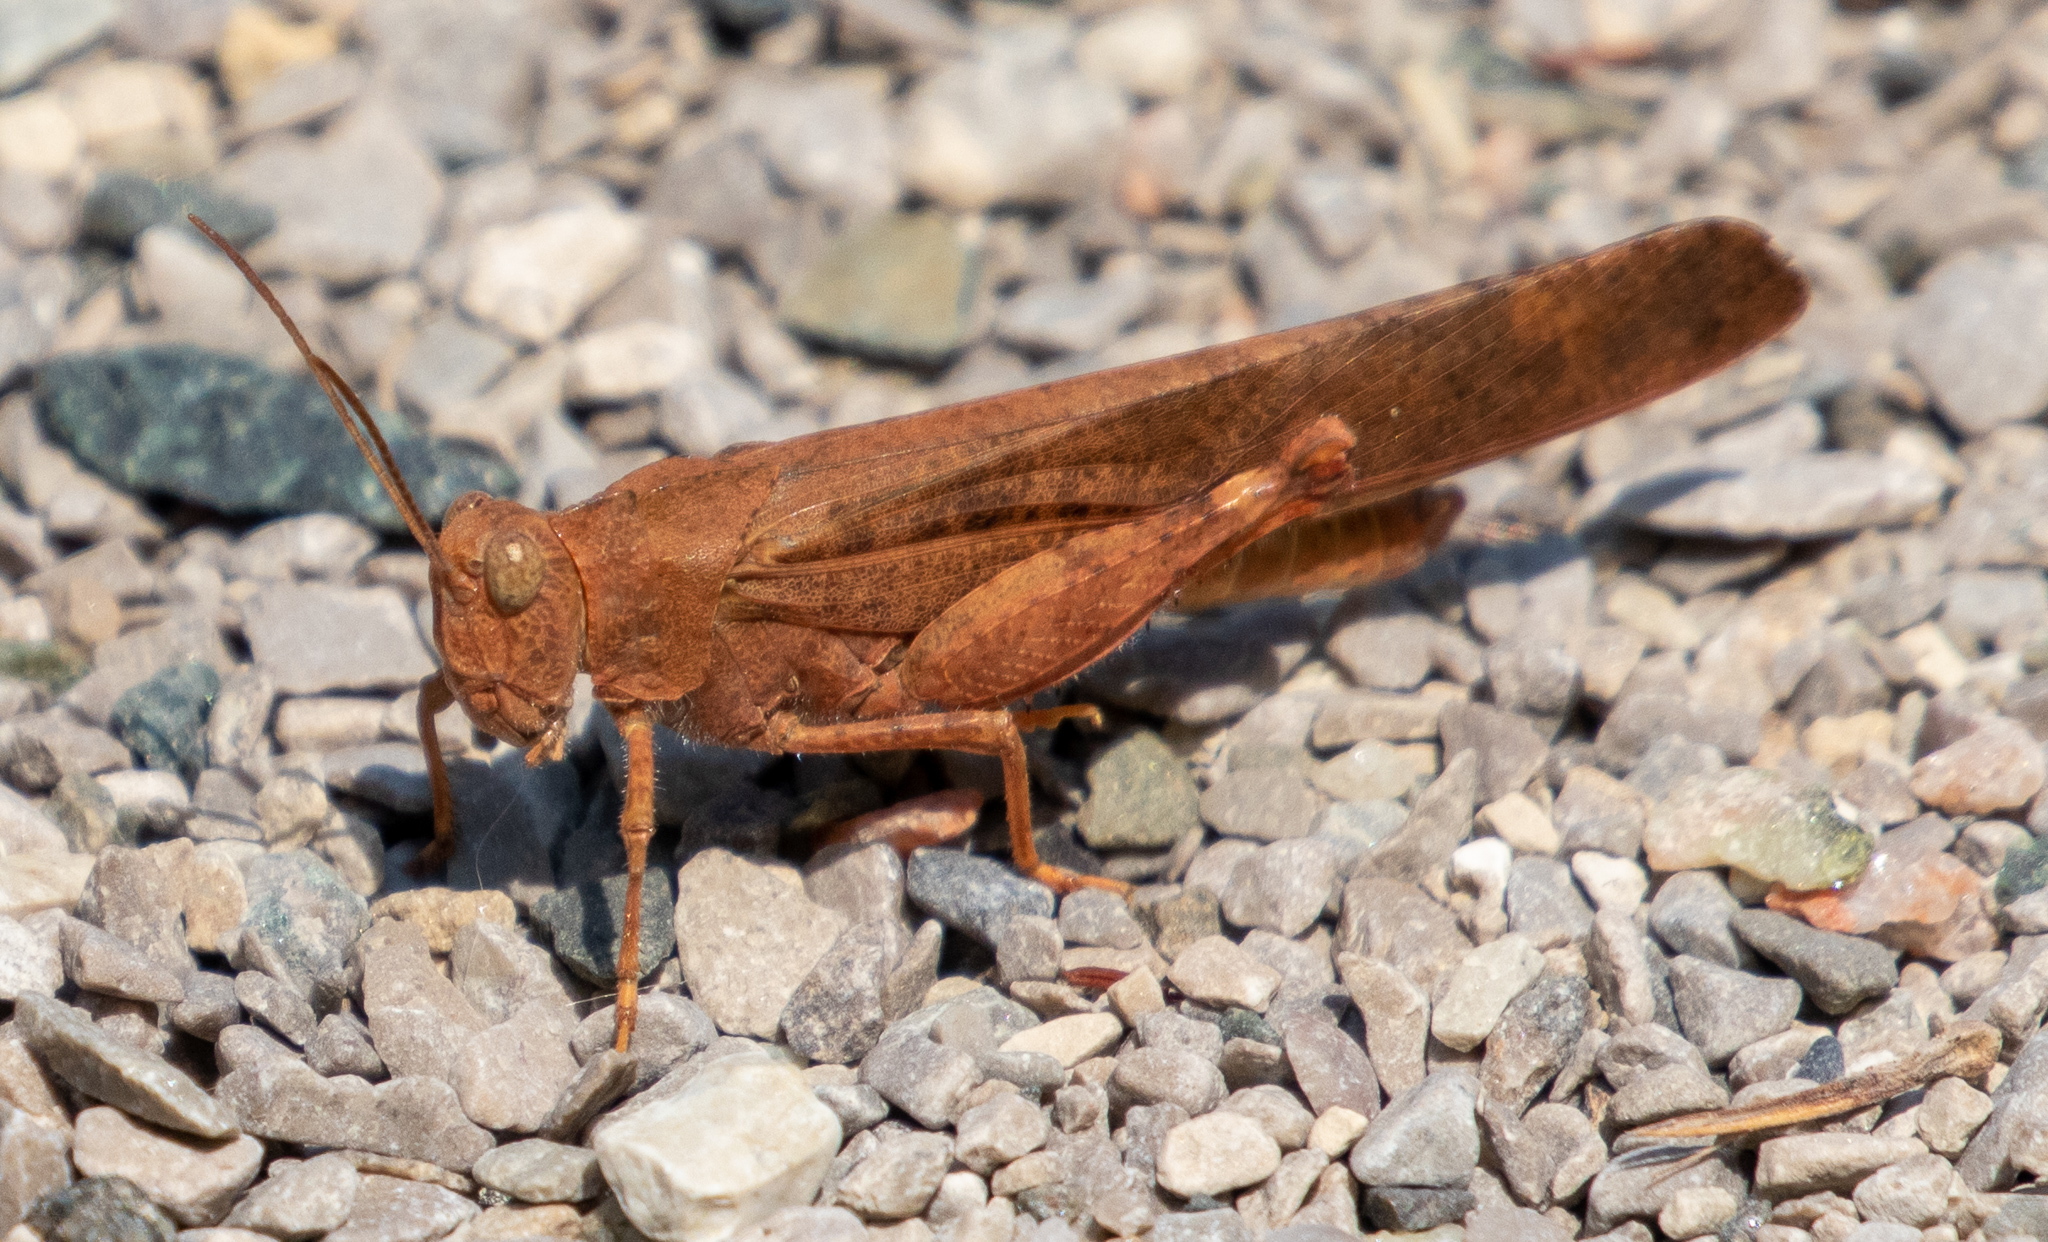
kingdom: Animalia
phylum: Arthropoda
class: Insecta
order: Orthoptera
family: Acrididae
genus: Dissosteira
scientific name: Dissosteira carolina
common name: Carolina grasshopper
